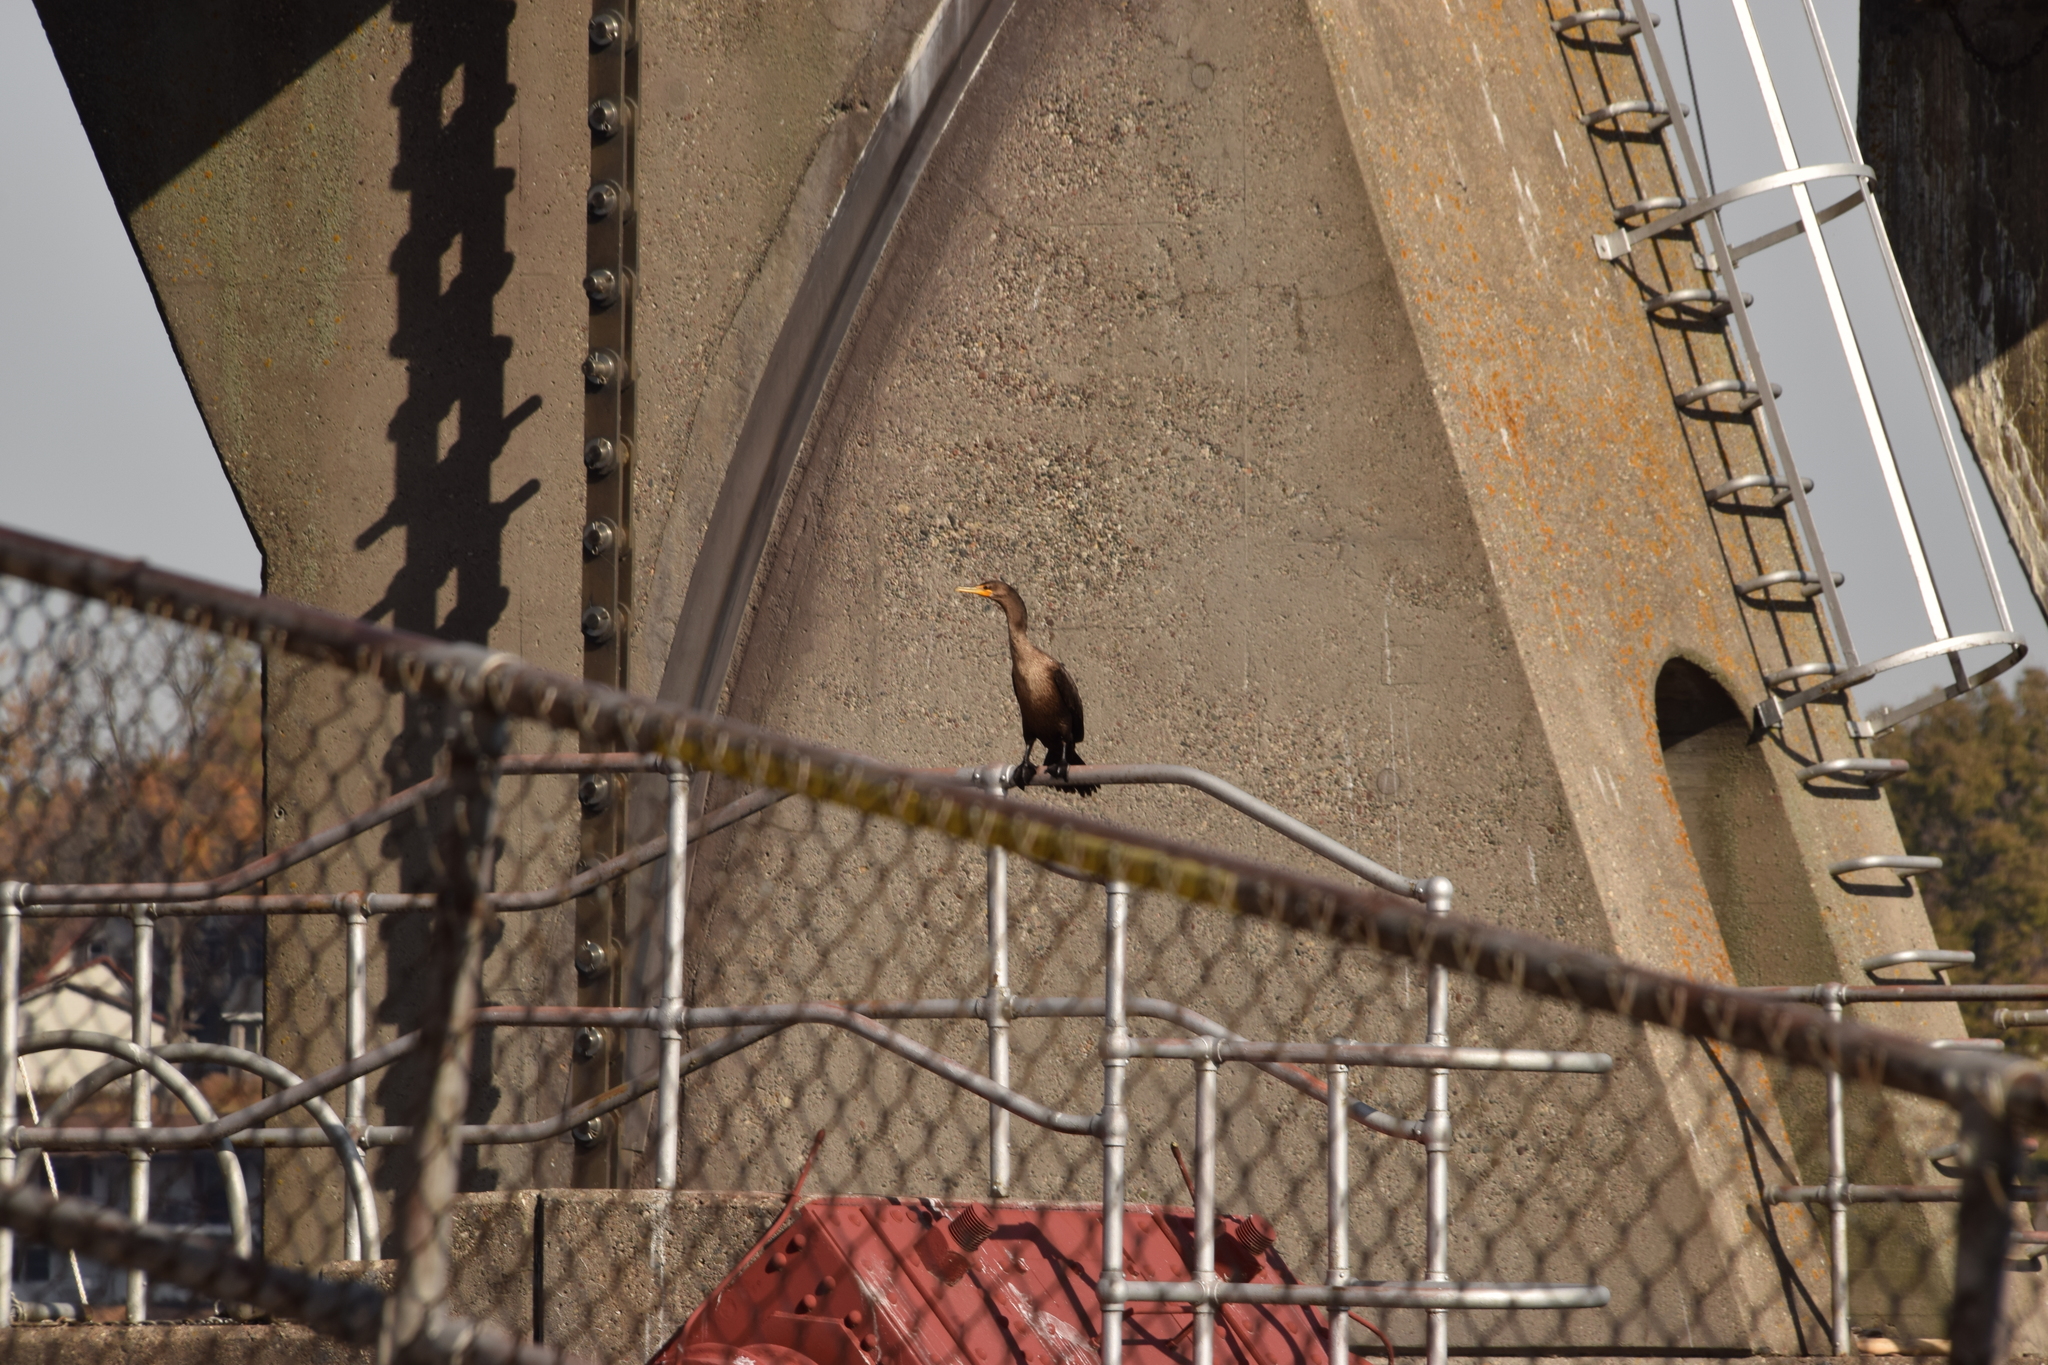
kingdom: Animalia
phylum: Chordata
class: Aves
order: Suliformes
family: Phalacrocoracidae
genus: Phalacrocorax
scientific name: Phalacrocorax auritus
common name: Double-crested cormorant
